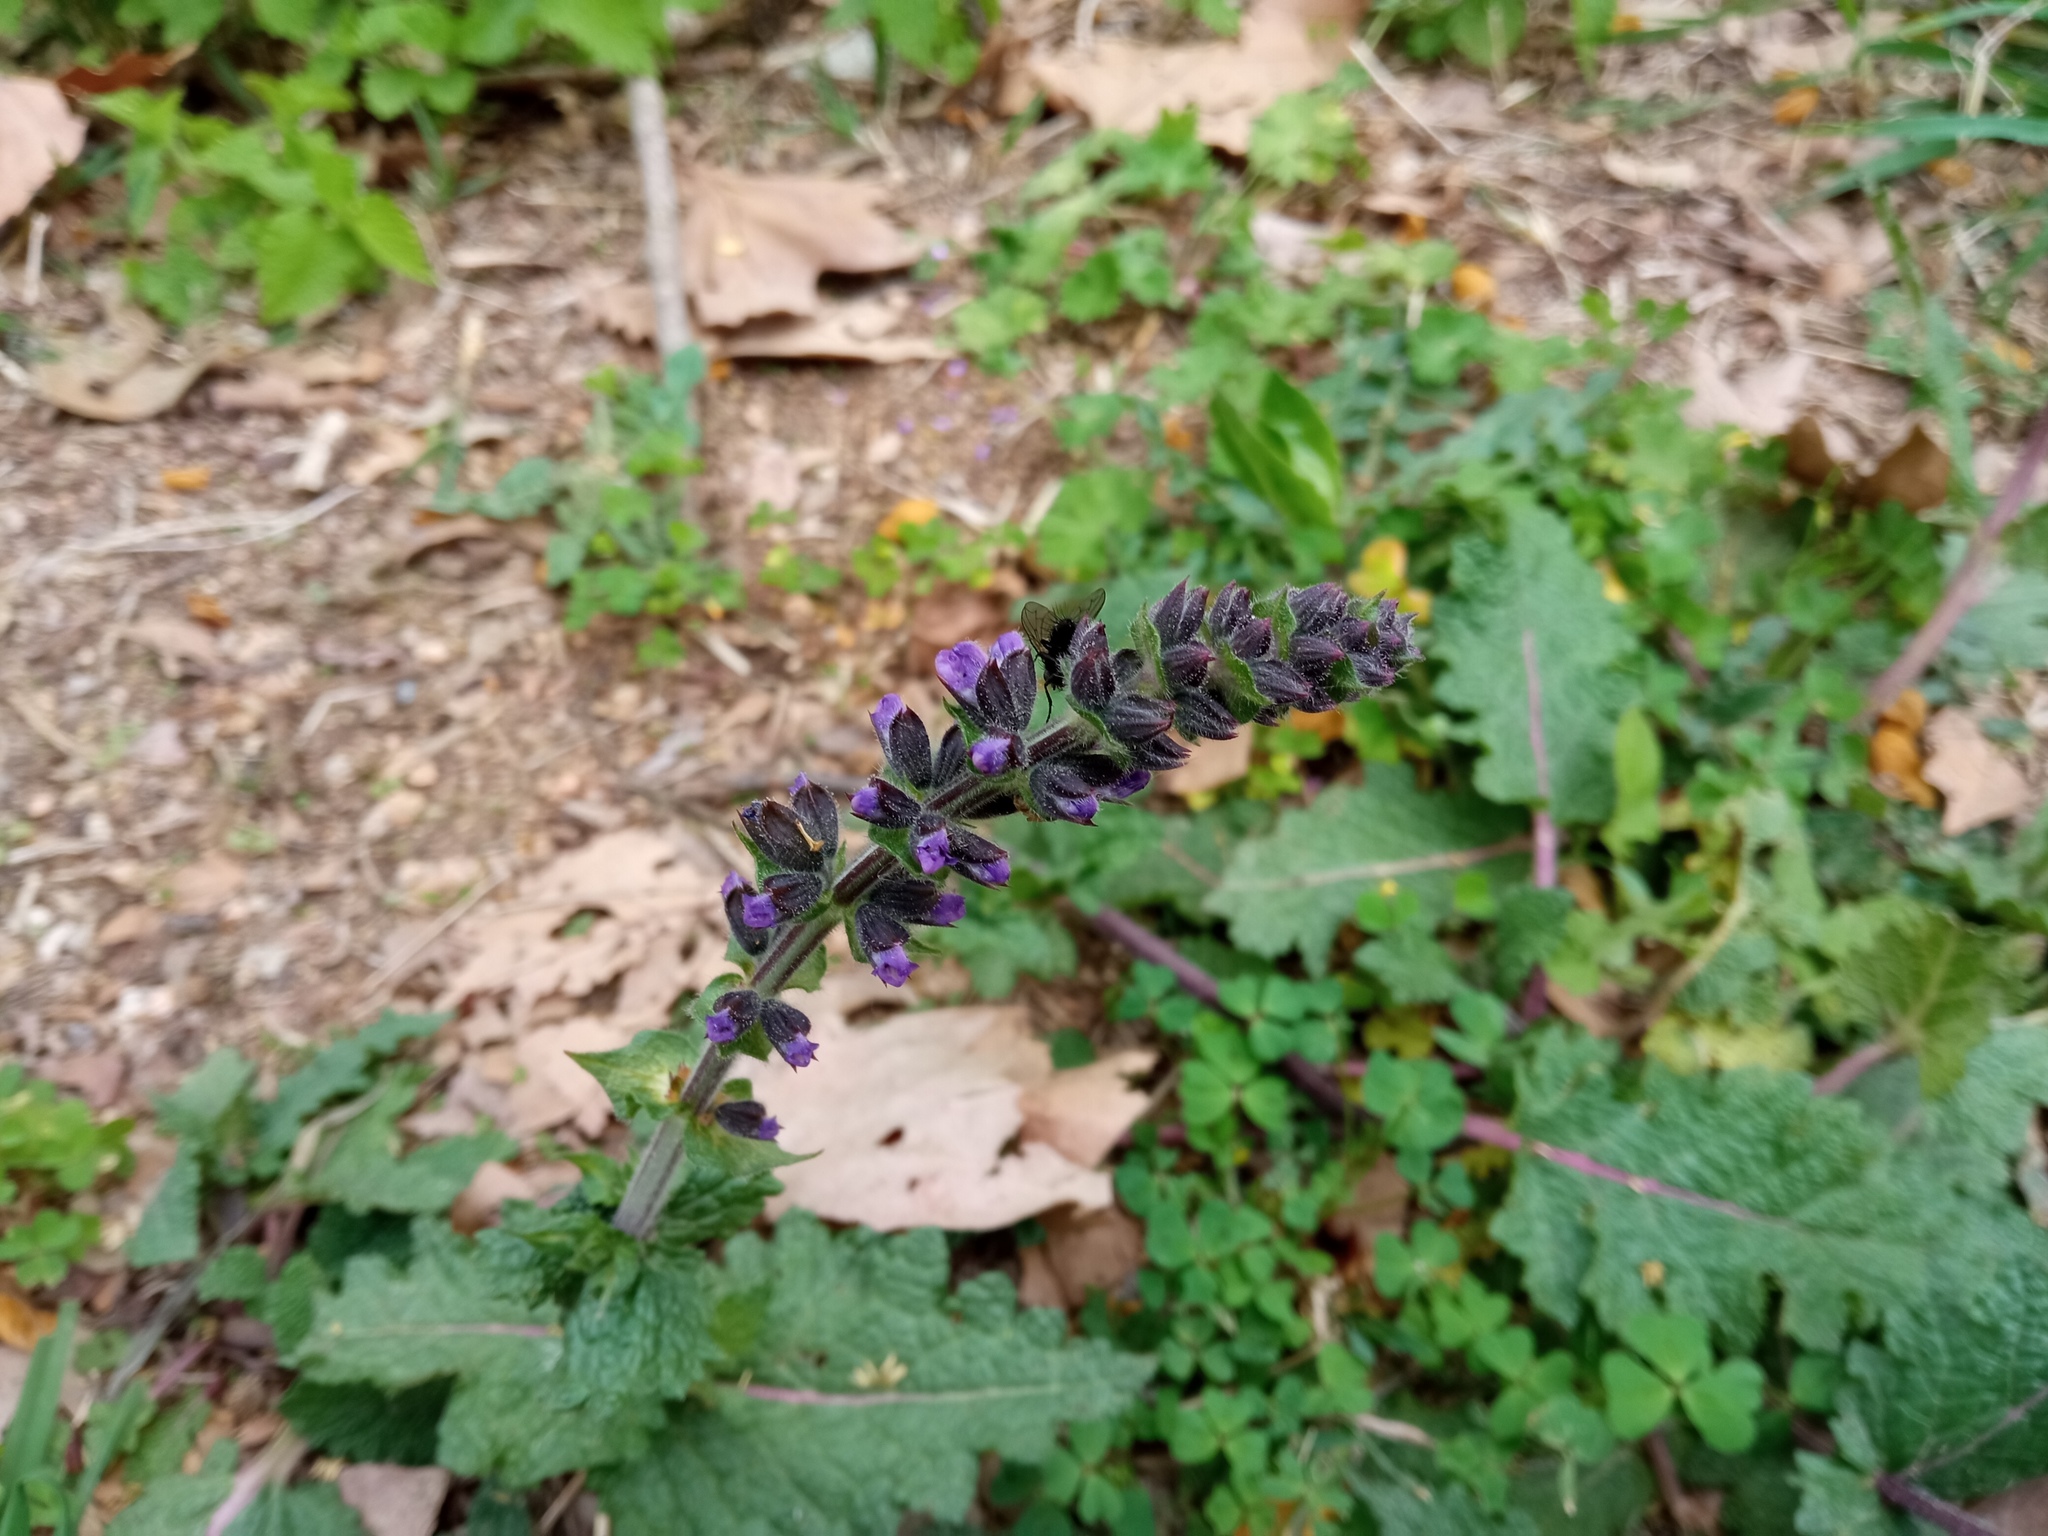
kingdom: Plantae
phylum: Tracheophyta
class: Magnoliopsida
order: Lamiales
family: Lamiaceae
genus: Salvia
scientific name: Salvia verbenaca
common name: Wild clary
